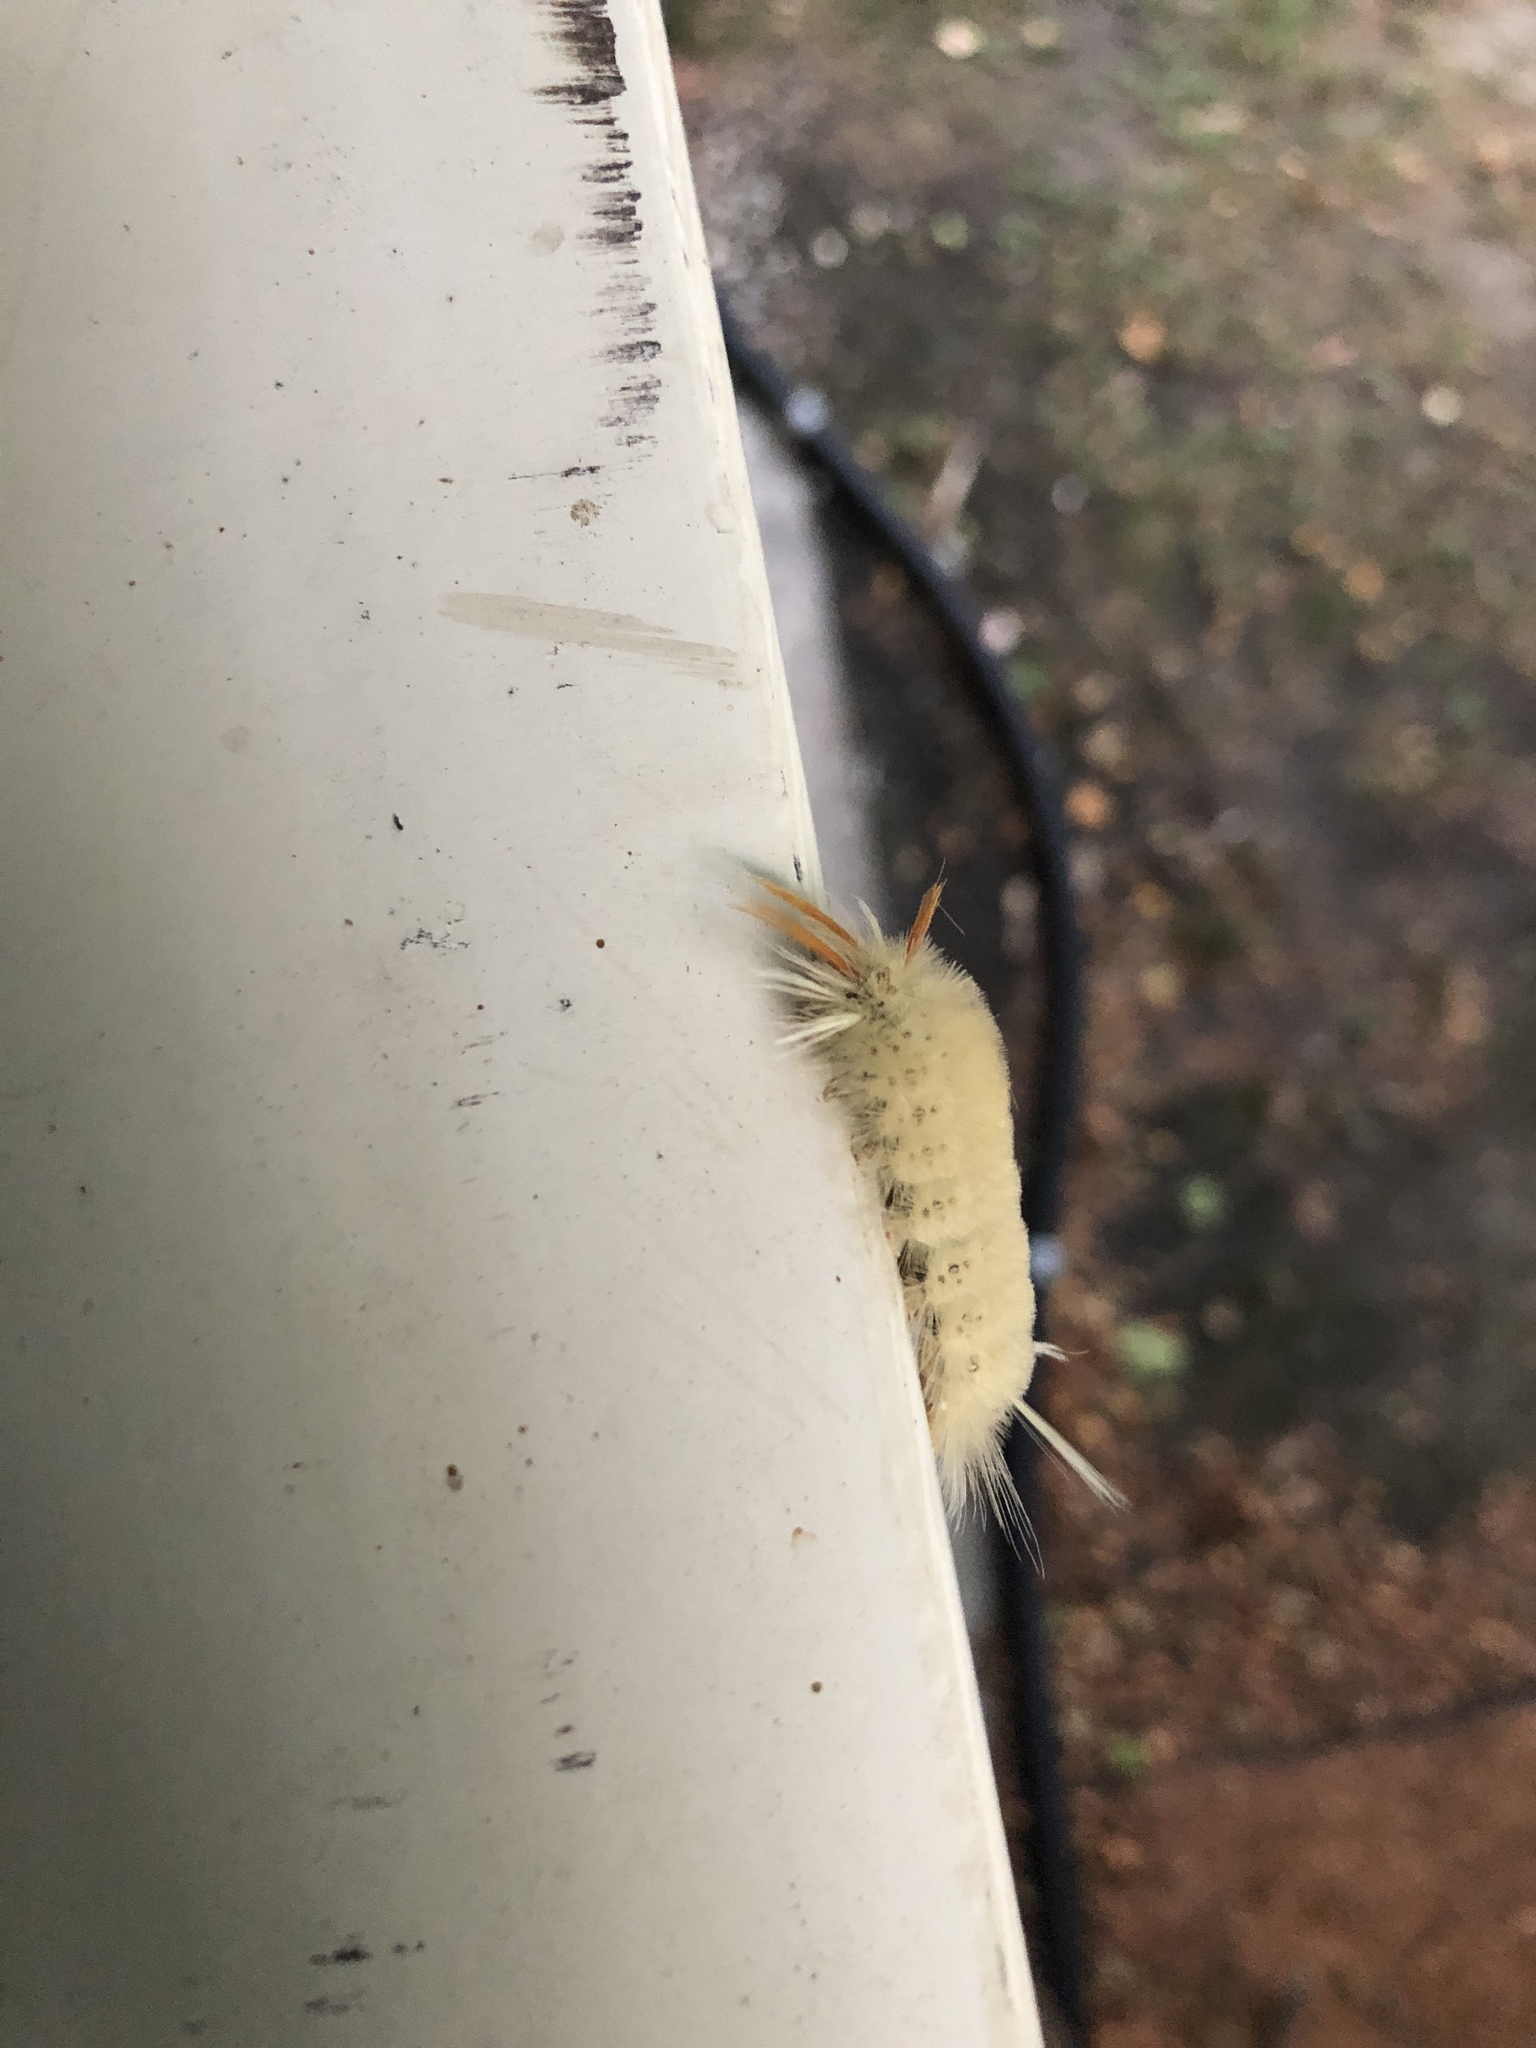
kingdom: Animalia
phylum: Arthropoda
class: Insecta
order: Lepidoptera
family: Erebidae
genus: Halysidota
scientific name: Halysidota harrisii
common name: Sycamore tussock moth
